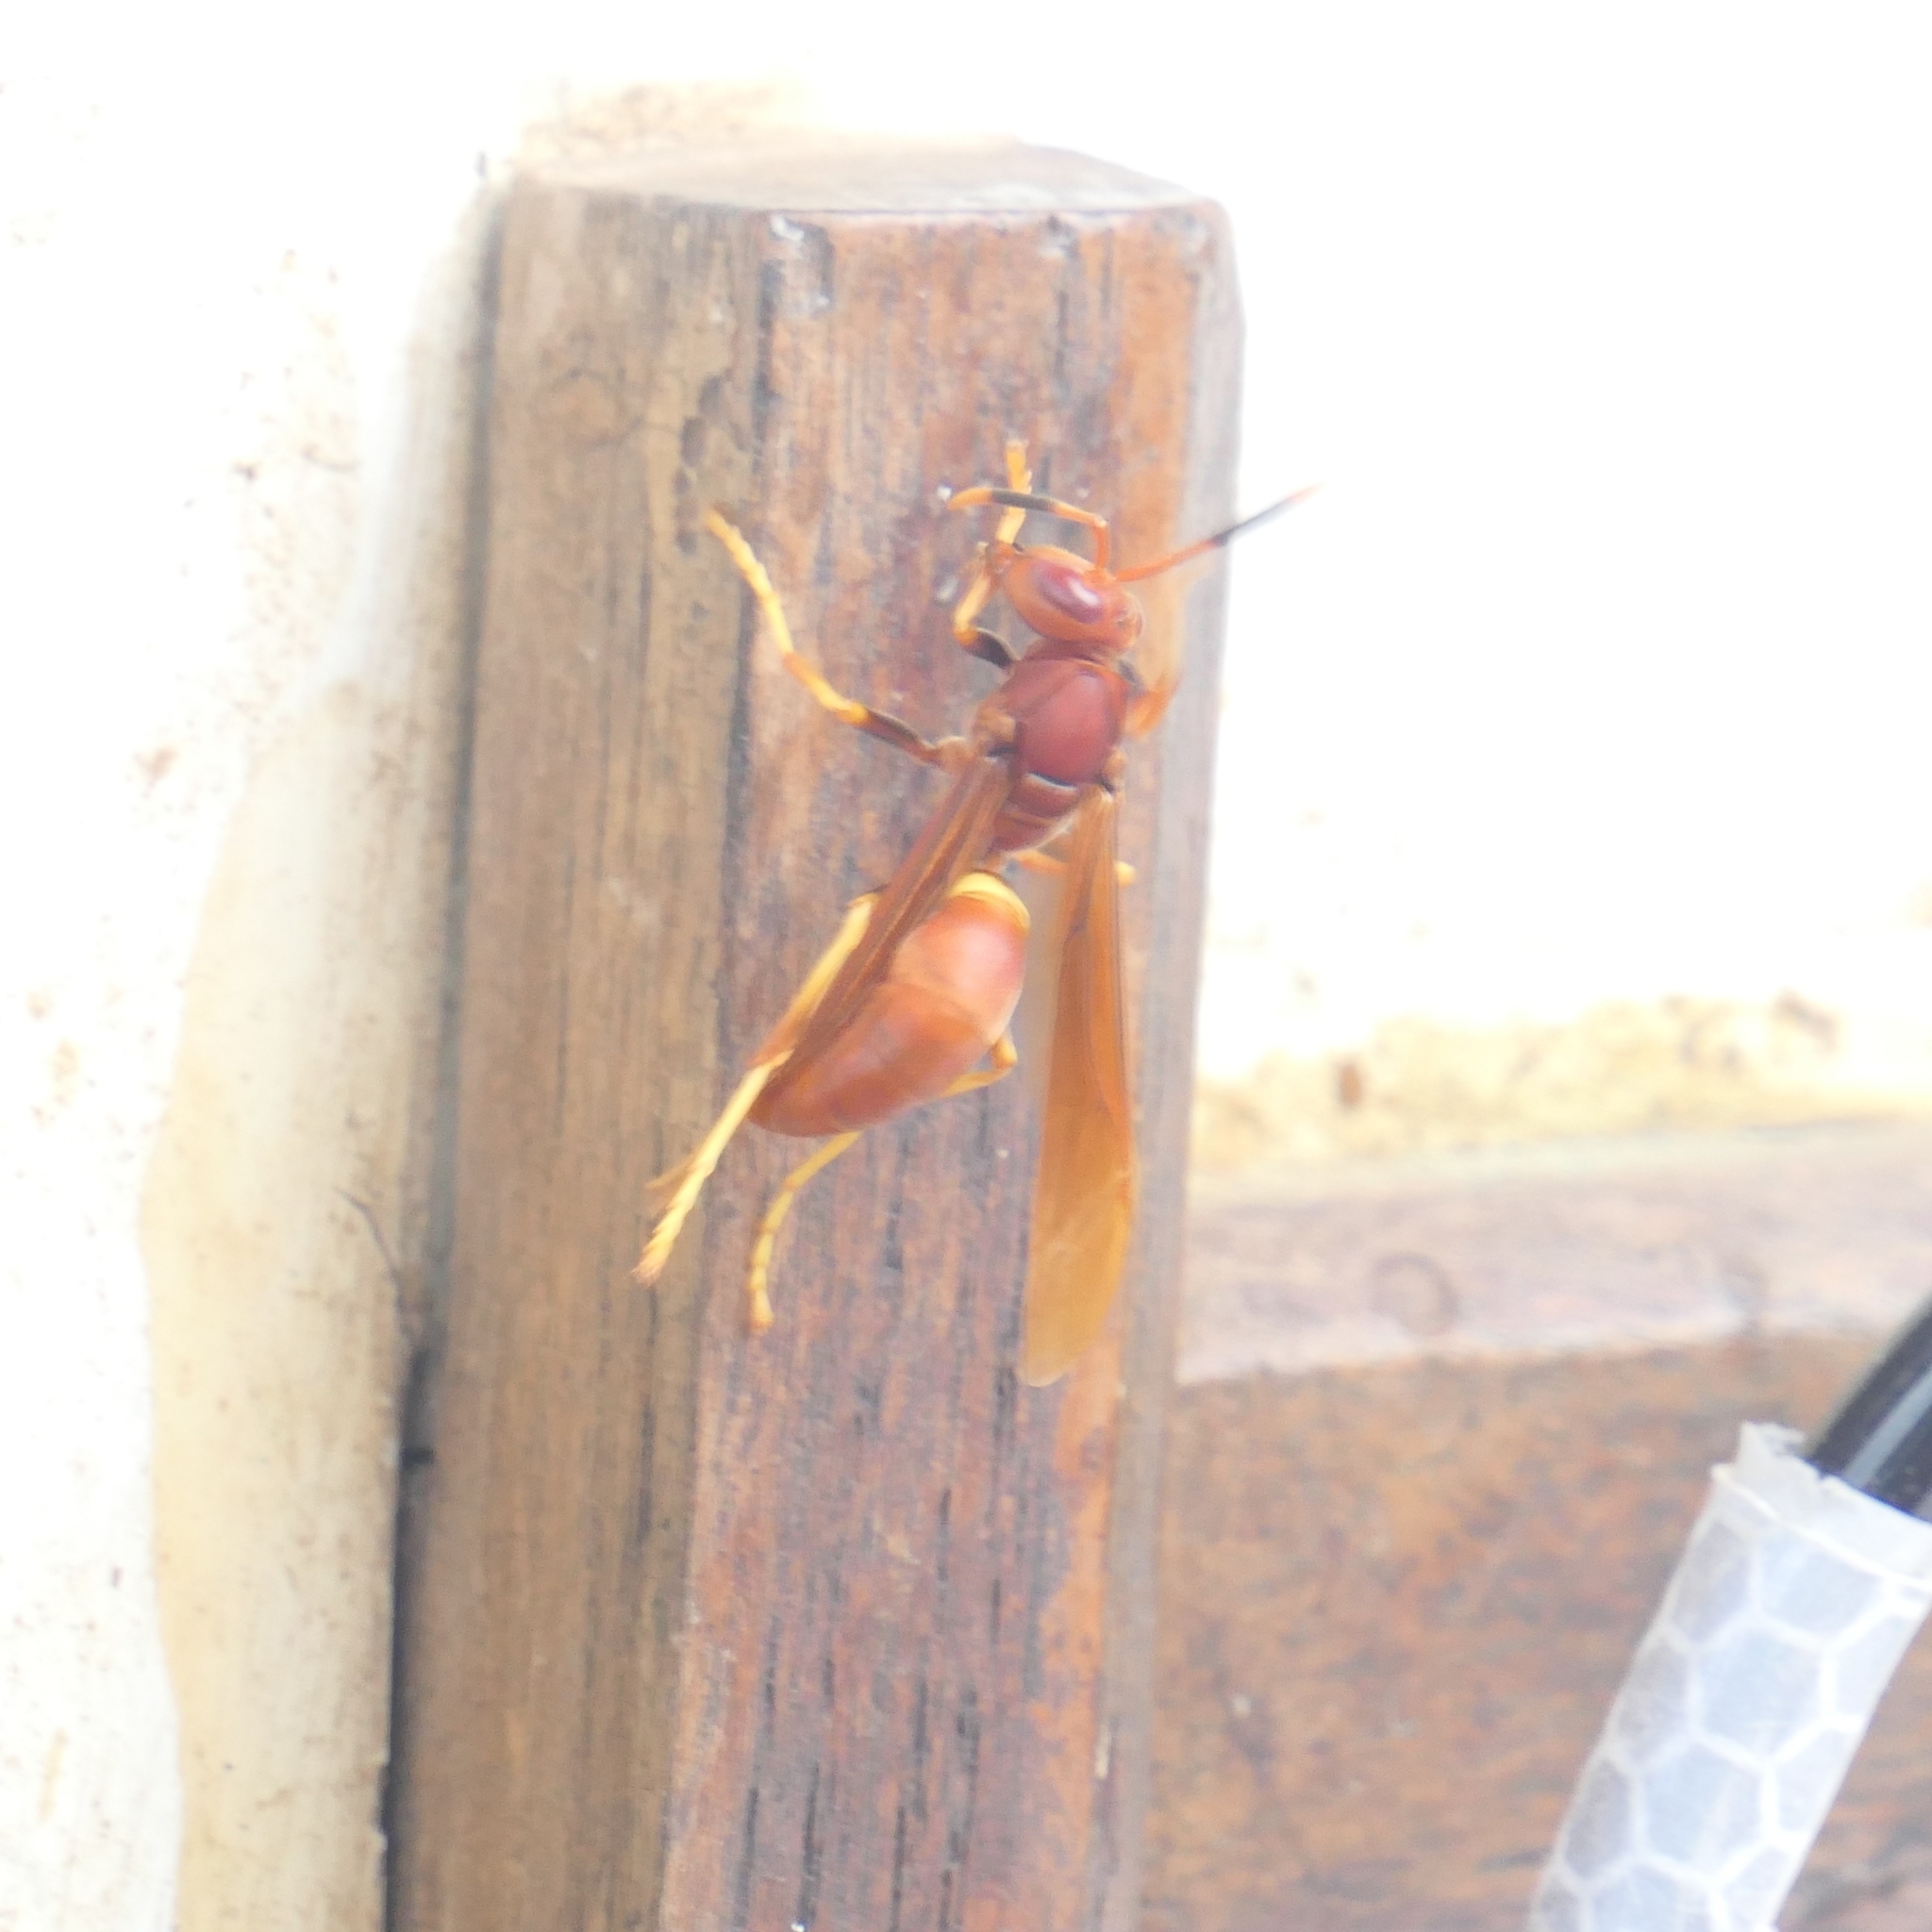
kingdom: Animalia
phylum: Arthropoda
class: Insecta
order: Hymenoptera
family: Eumenidae
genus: Polistes
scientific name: Polistes dominicus
